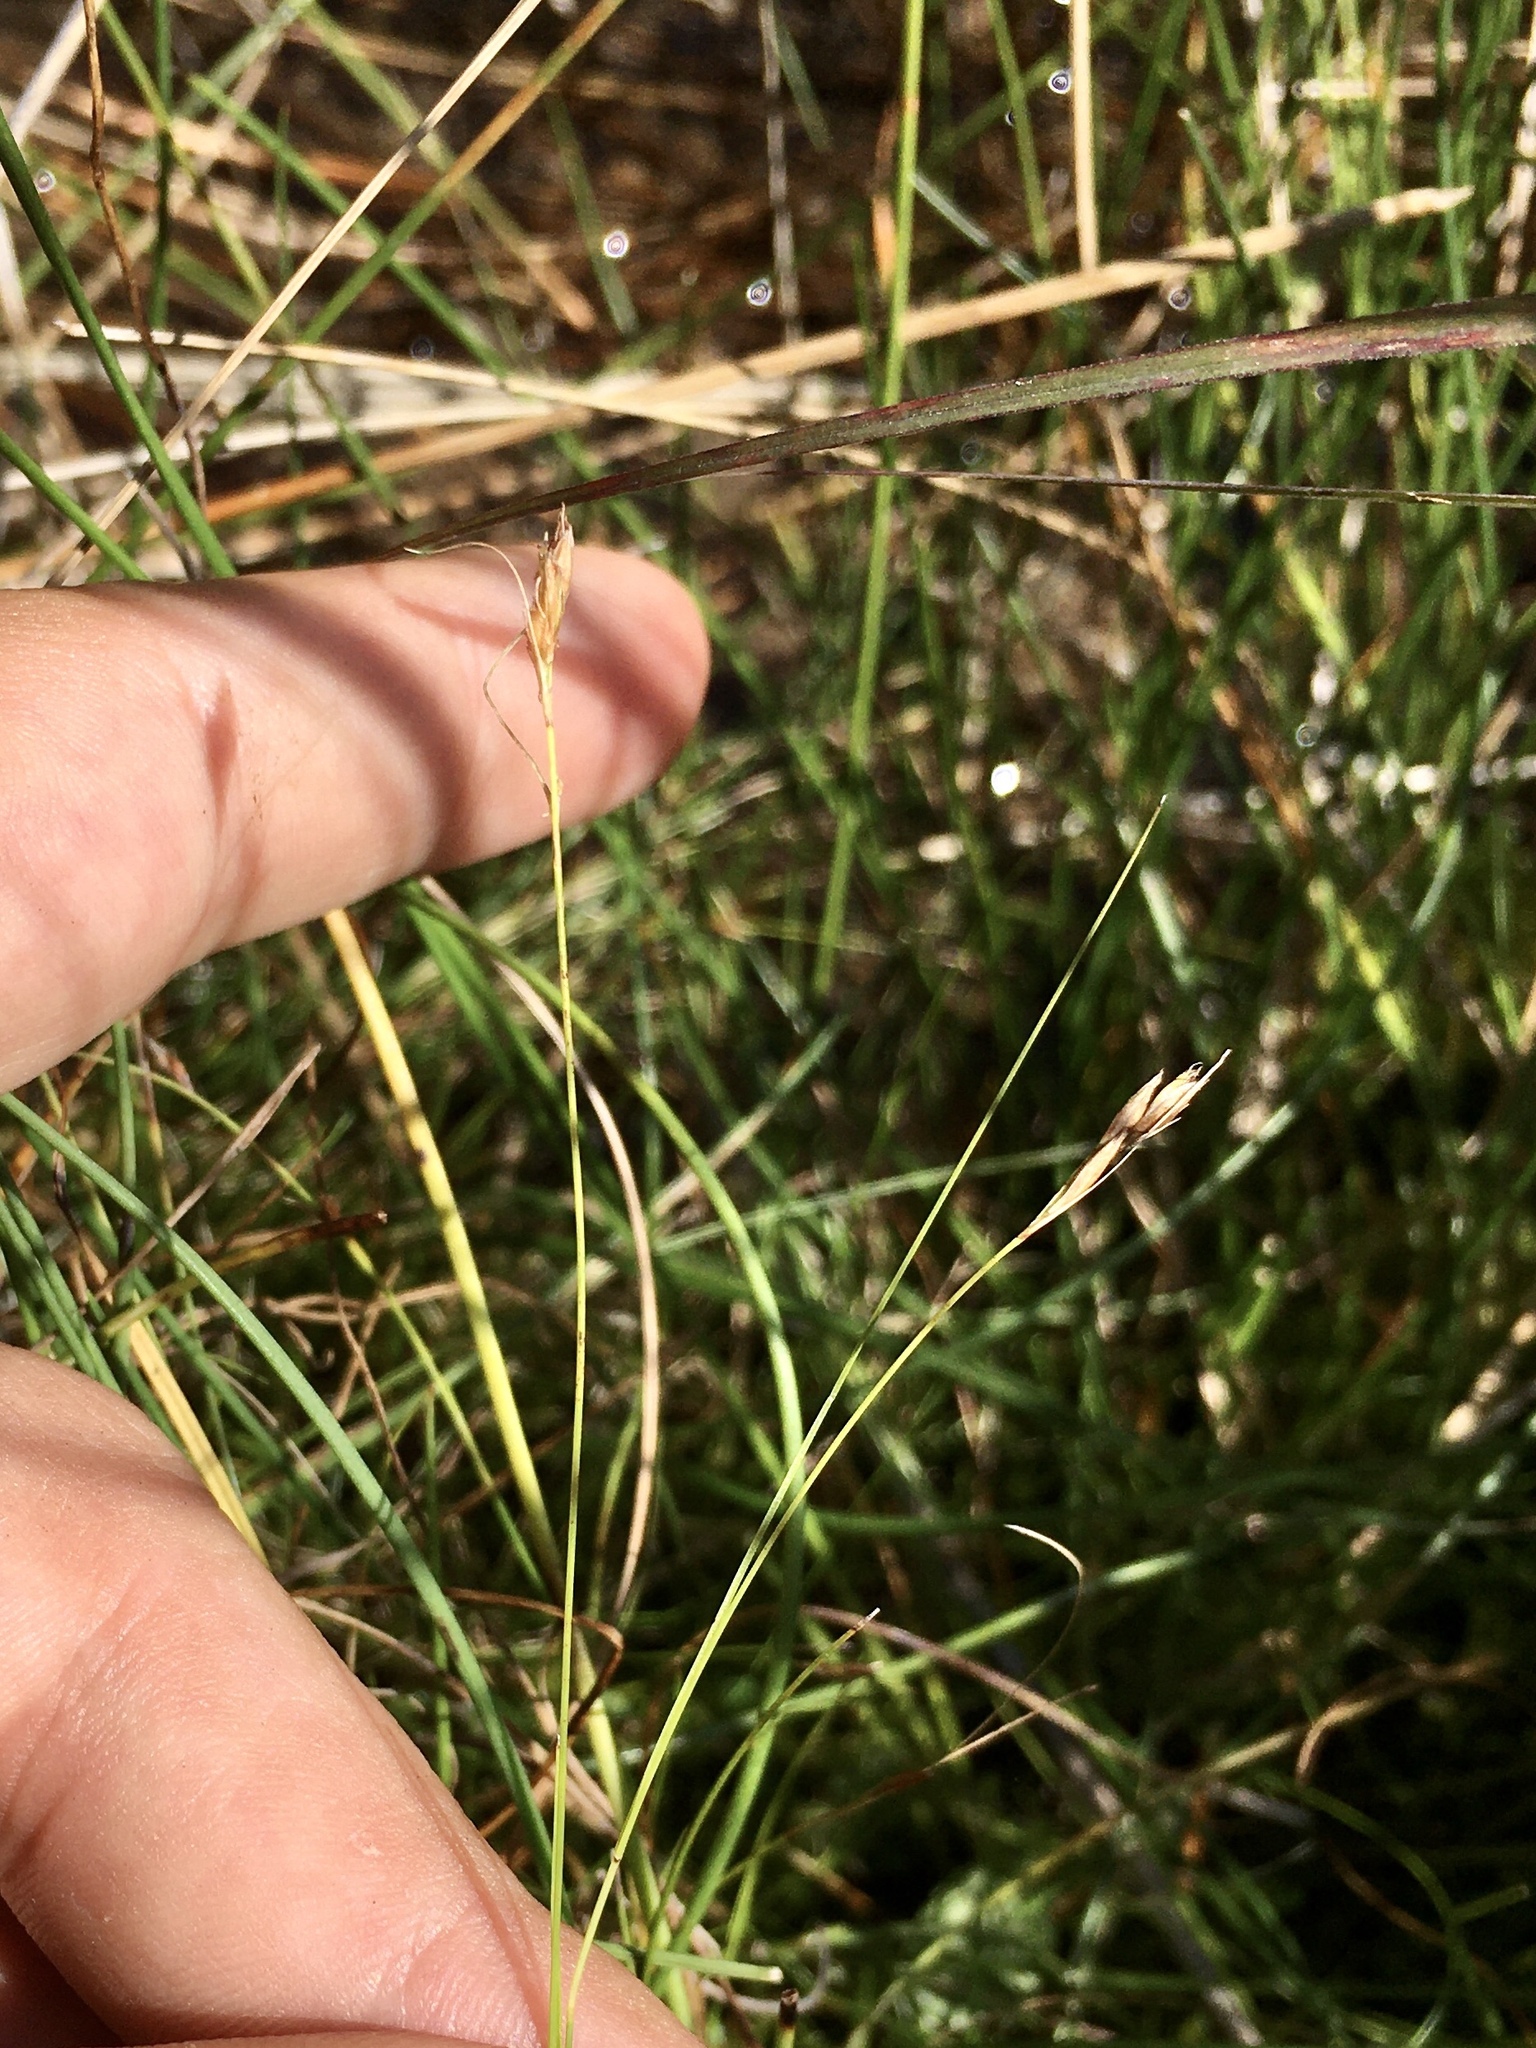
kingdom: Plantae
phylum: Tracheophyta
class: Liliopsida
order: Poales
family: Cyperaceae
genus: Rhynchospora
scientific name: Rhynchospora capillacea
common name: Capillary beakrush
